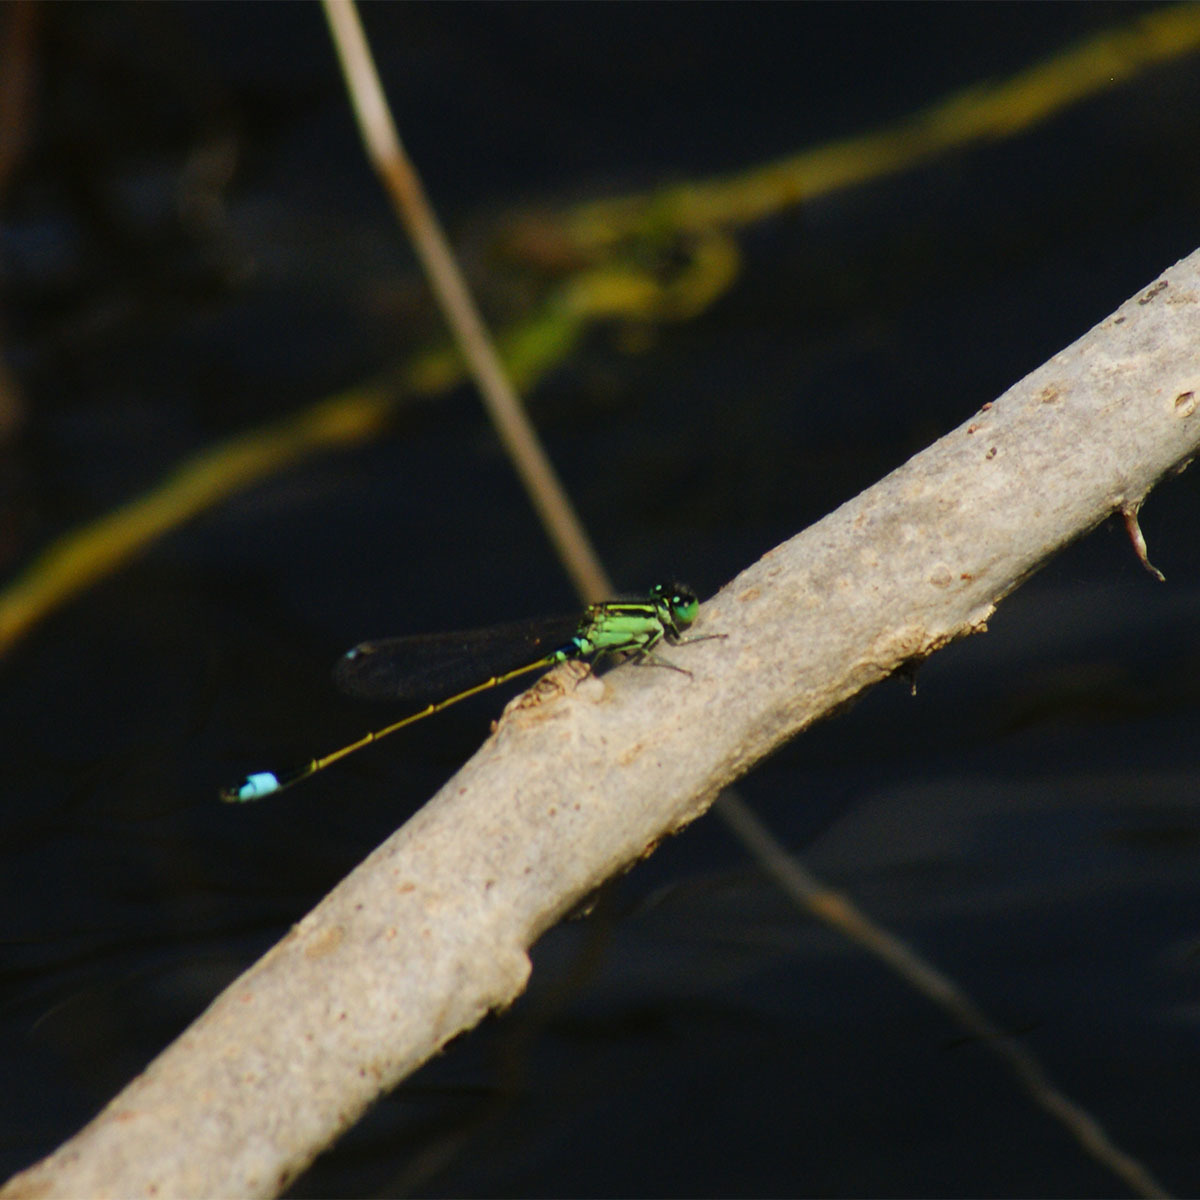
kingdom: Animalia
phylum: Arthropoda
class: Insecta
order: Odonata
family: Coenagrionidae
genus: Ischnura
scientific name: Ischnura senegalensis
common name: Tropical bluetail
